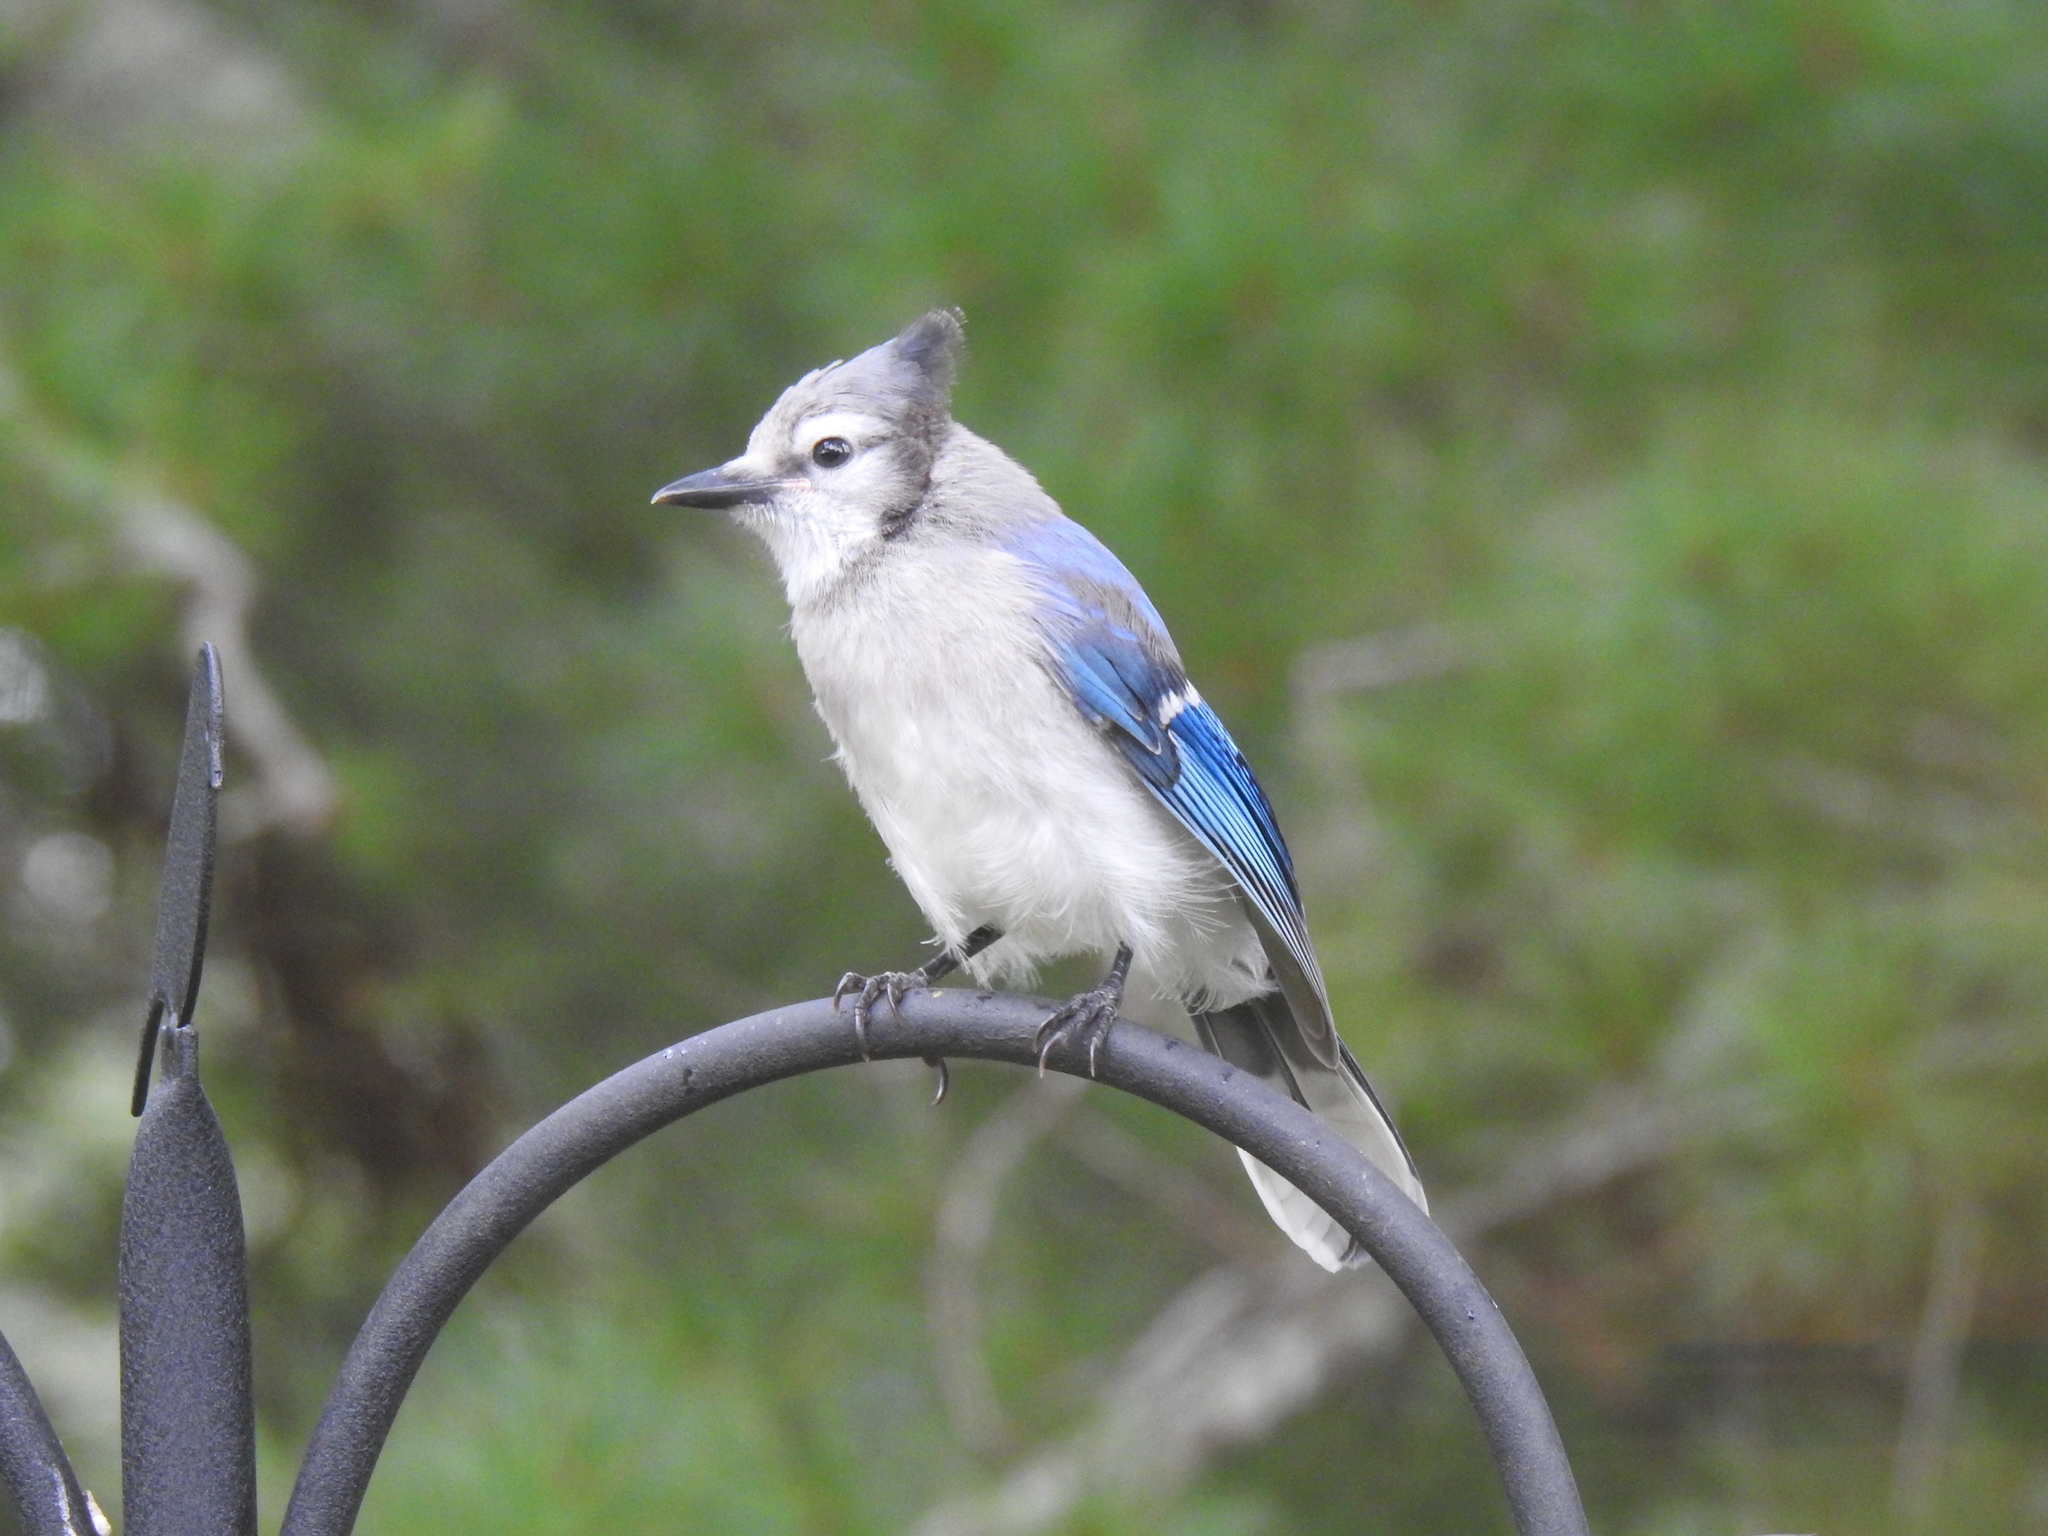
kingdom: Animalia
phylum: Chordata
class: Aves
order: Passeriformes
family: Corvidae
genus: Cyanocitta
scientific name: Cyanocitta cristata
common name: Blue jay
